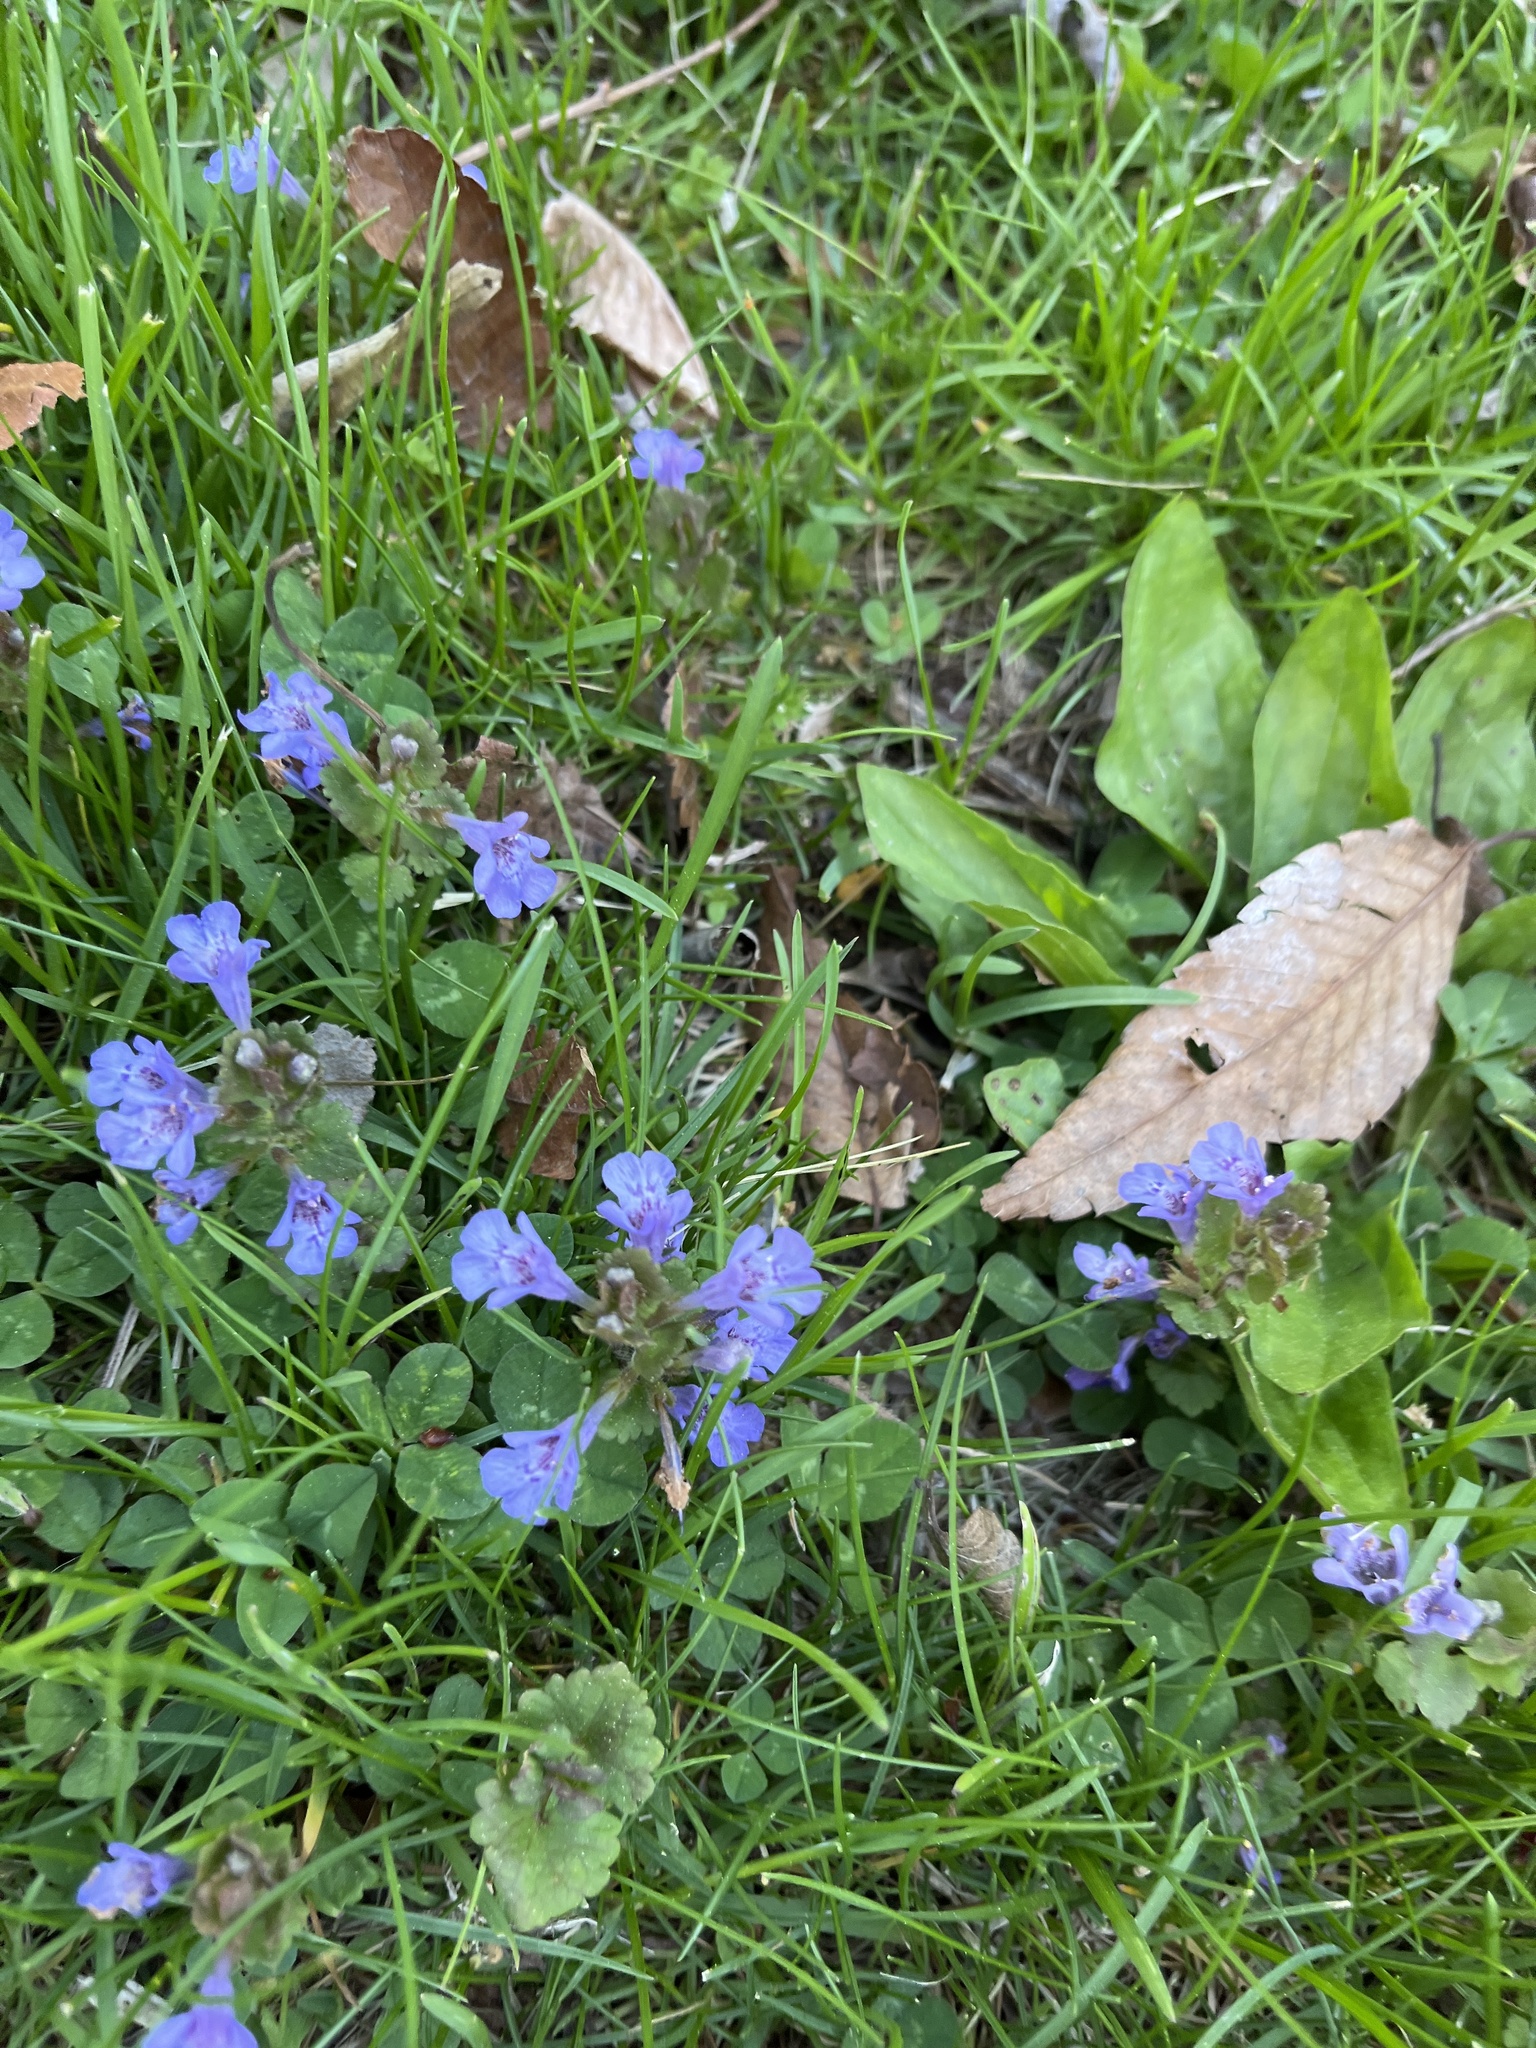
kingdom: Plantae
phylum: Tracheophyta
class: Magnoliopsida
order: Lamiales
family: Lamiaceae
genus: Glechoma
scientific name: Glechoma hederacea
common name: Ground ivy
